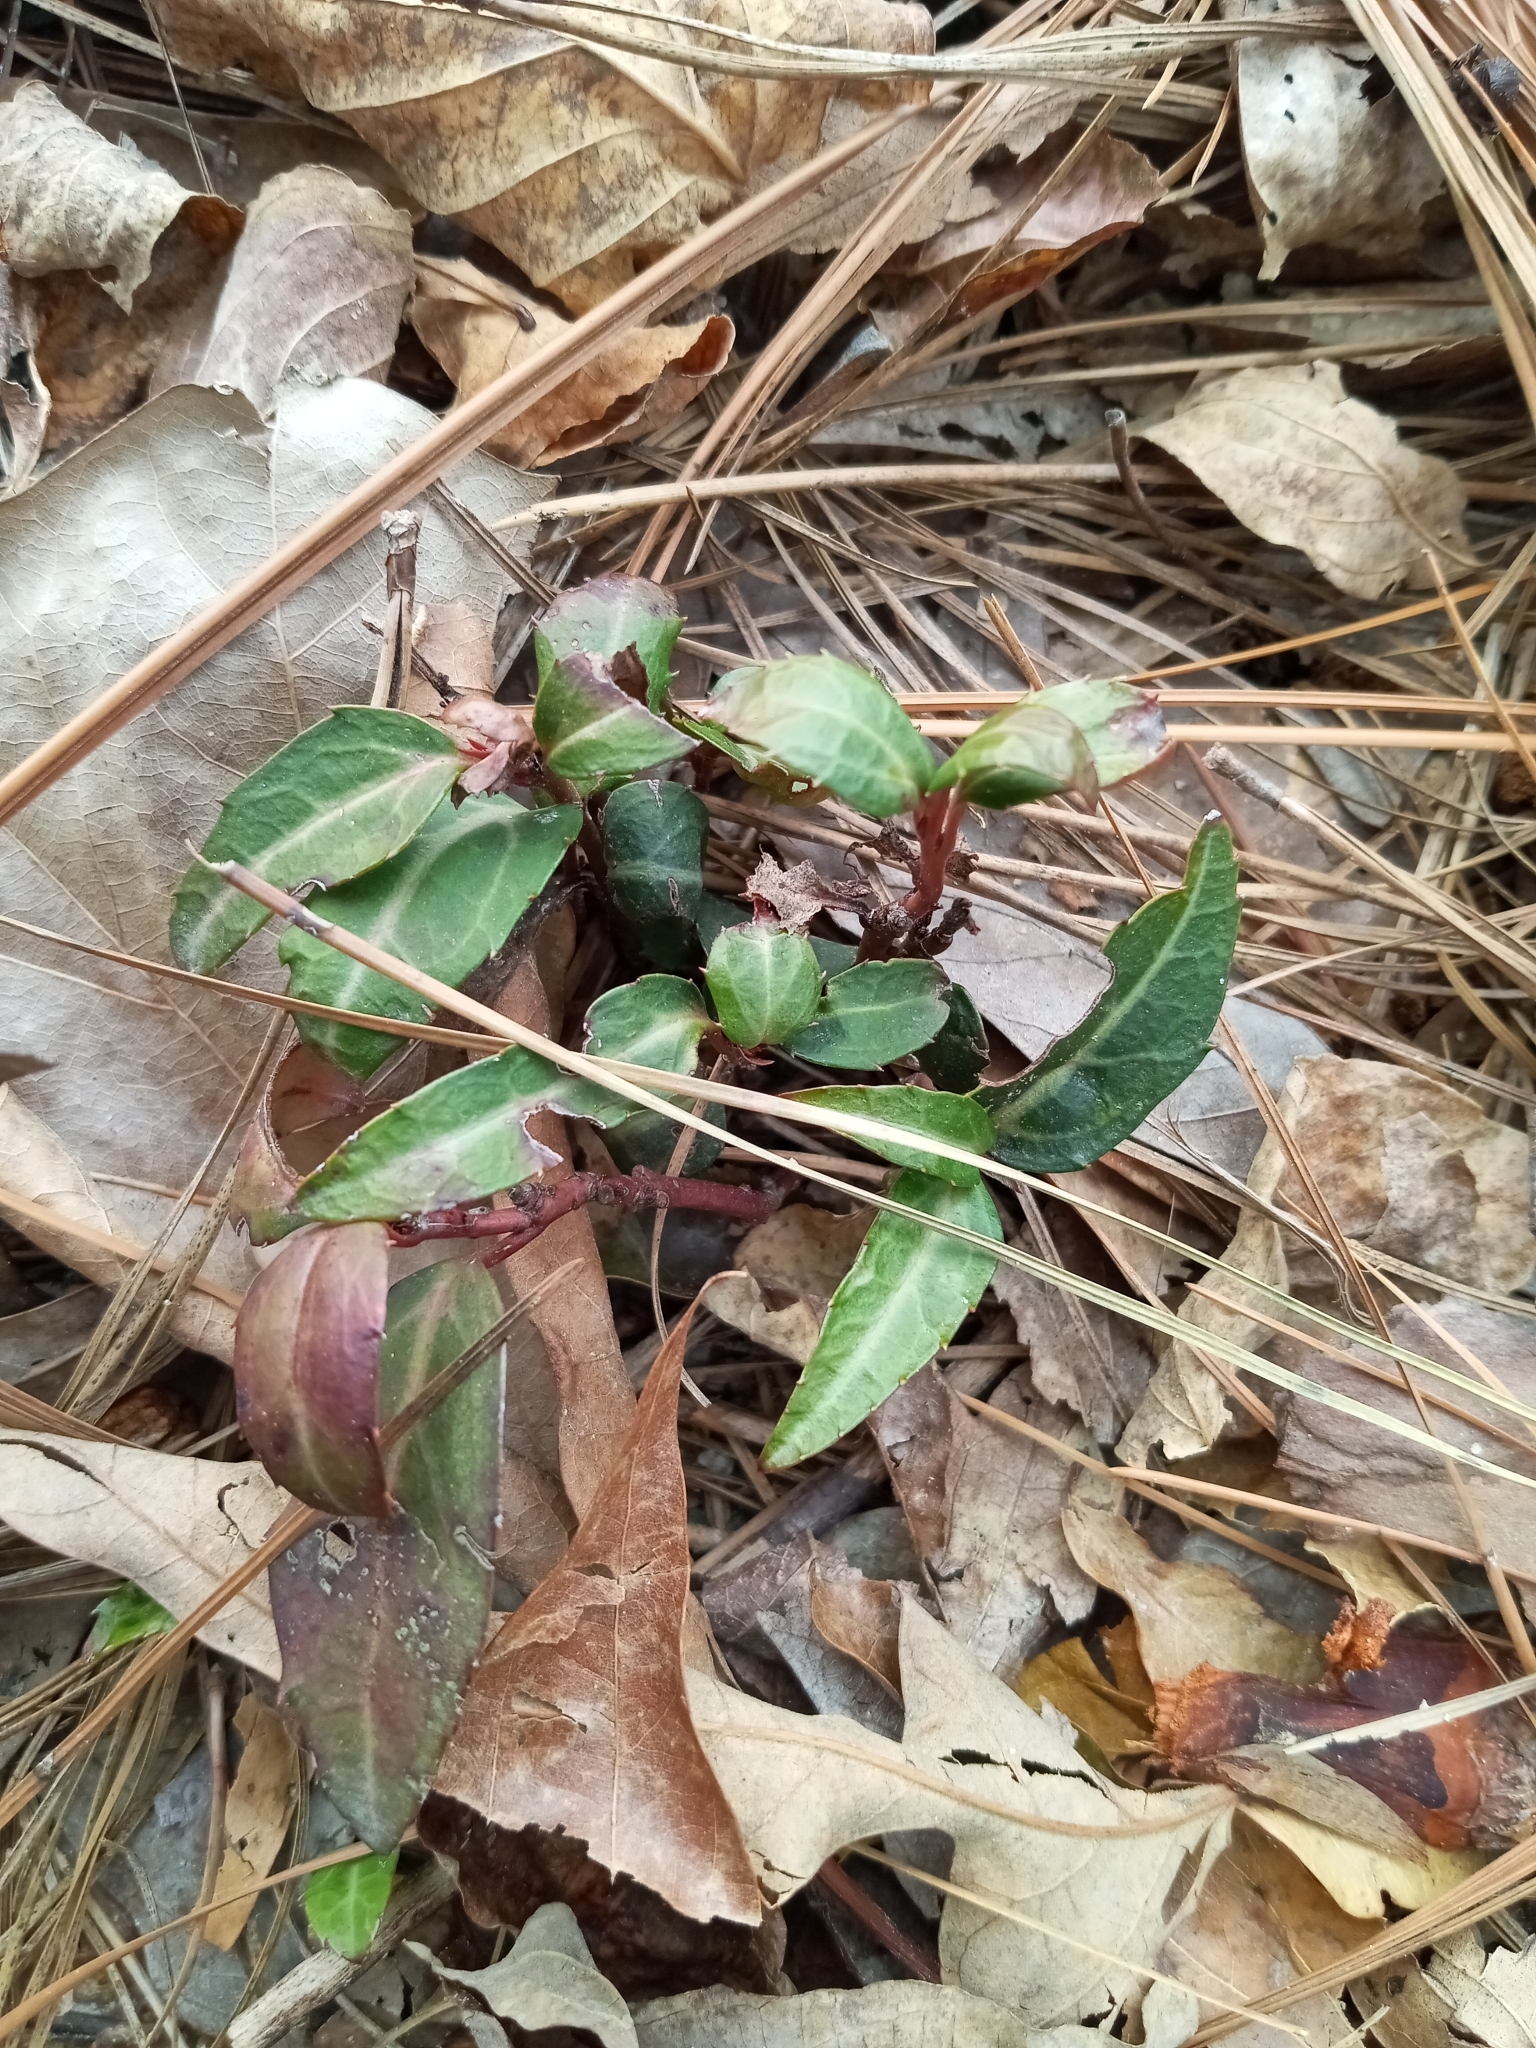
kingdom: Plantae
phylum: Tracheophyta
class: Magnoliopsida
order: Ericales
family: Ericaceae
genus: Chimaphila
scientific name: Chimaphila maculata
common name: Spotted pipsissewa
